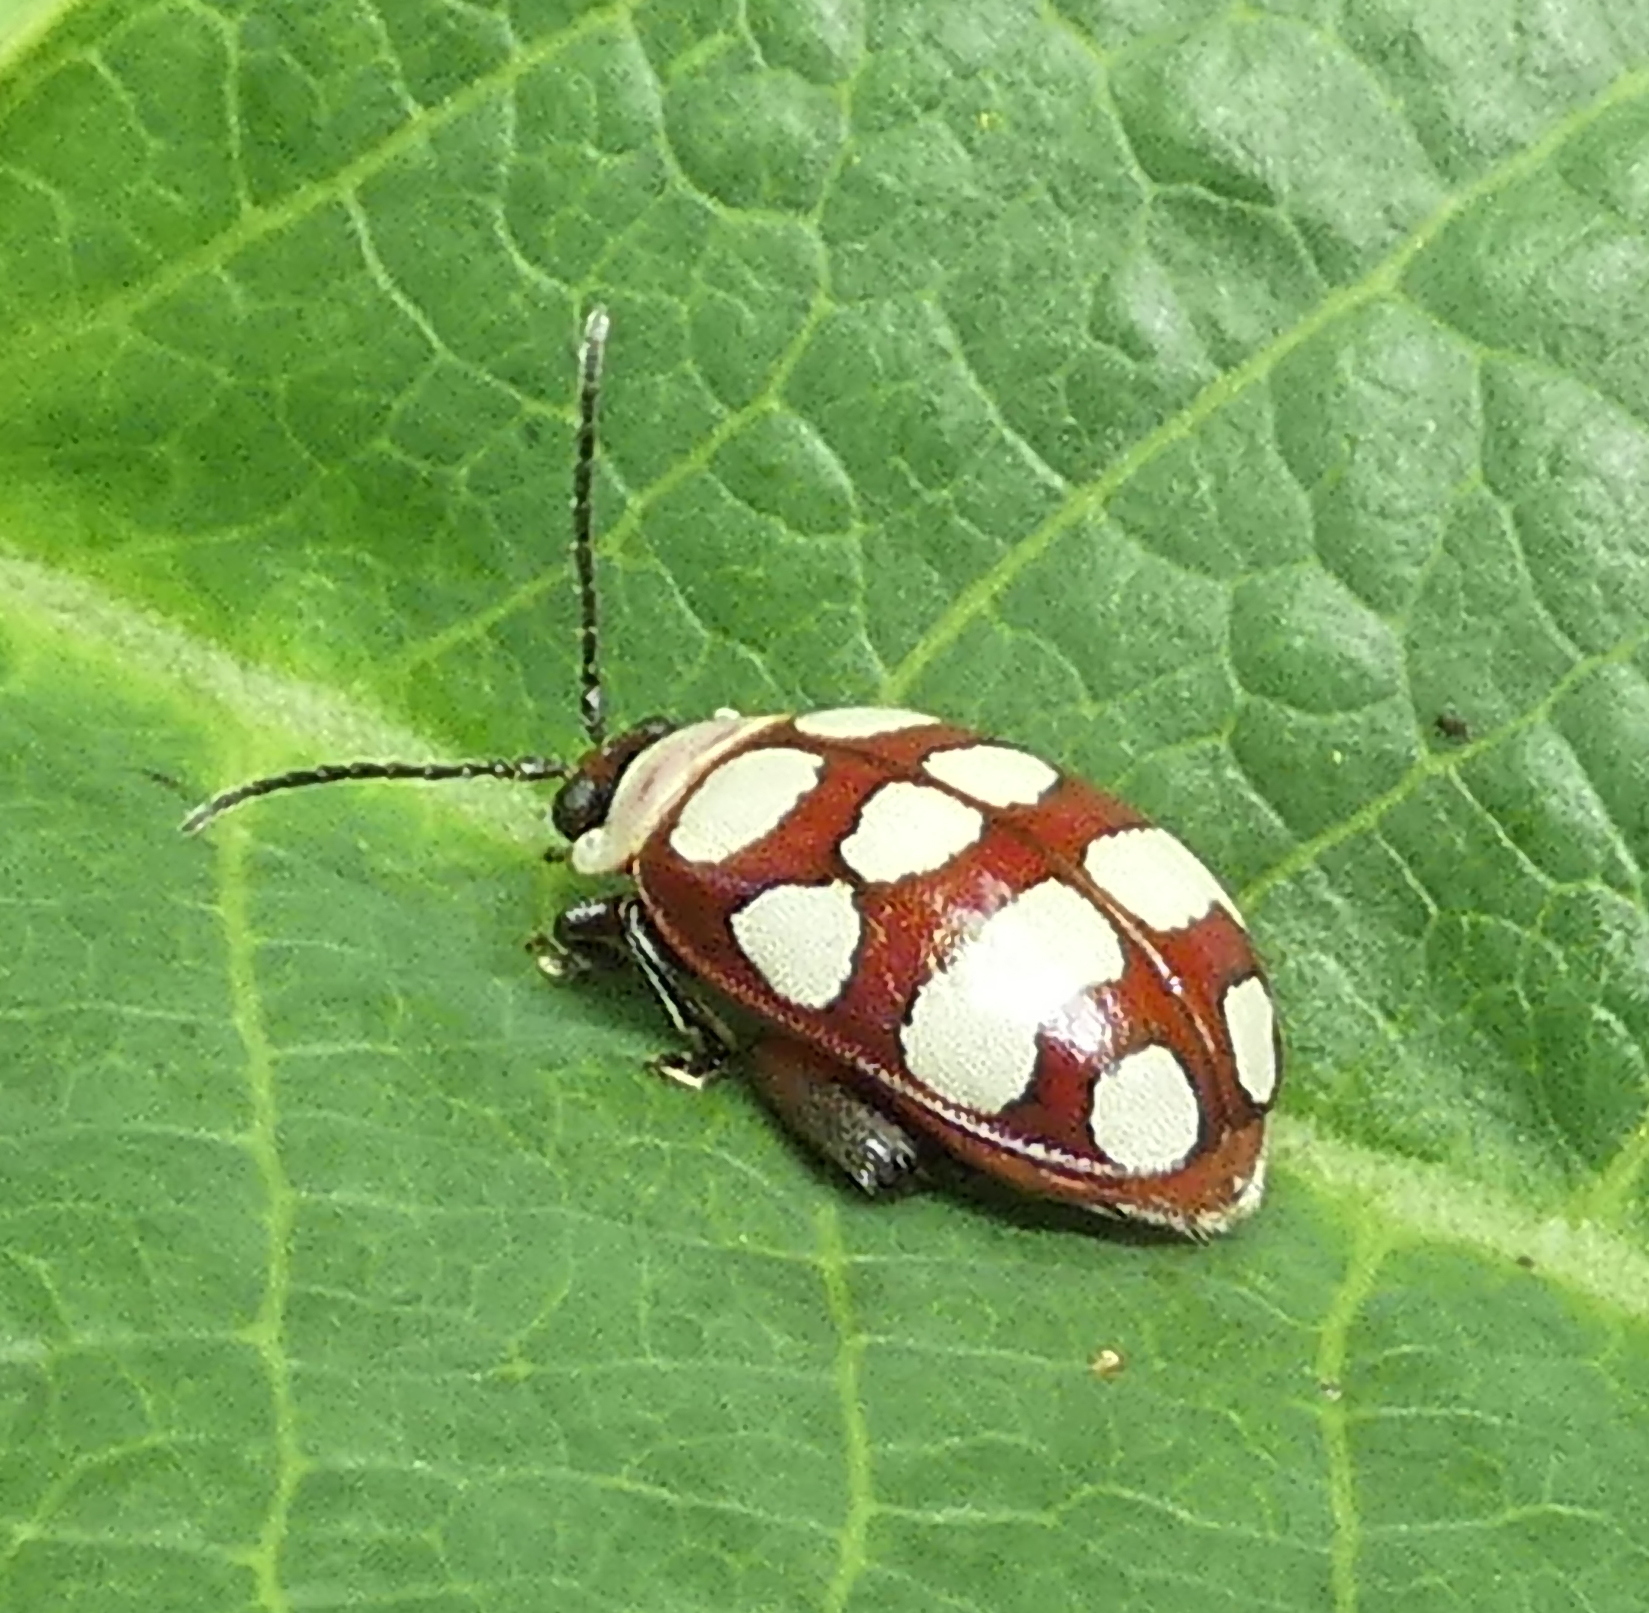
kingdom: Animalia
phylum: Arthropoda
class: Insecta
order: Coleoptera
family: Chrysomelidae
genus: Alagoasa
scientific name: Alagoasa decemguttata
